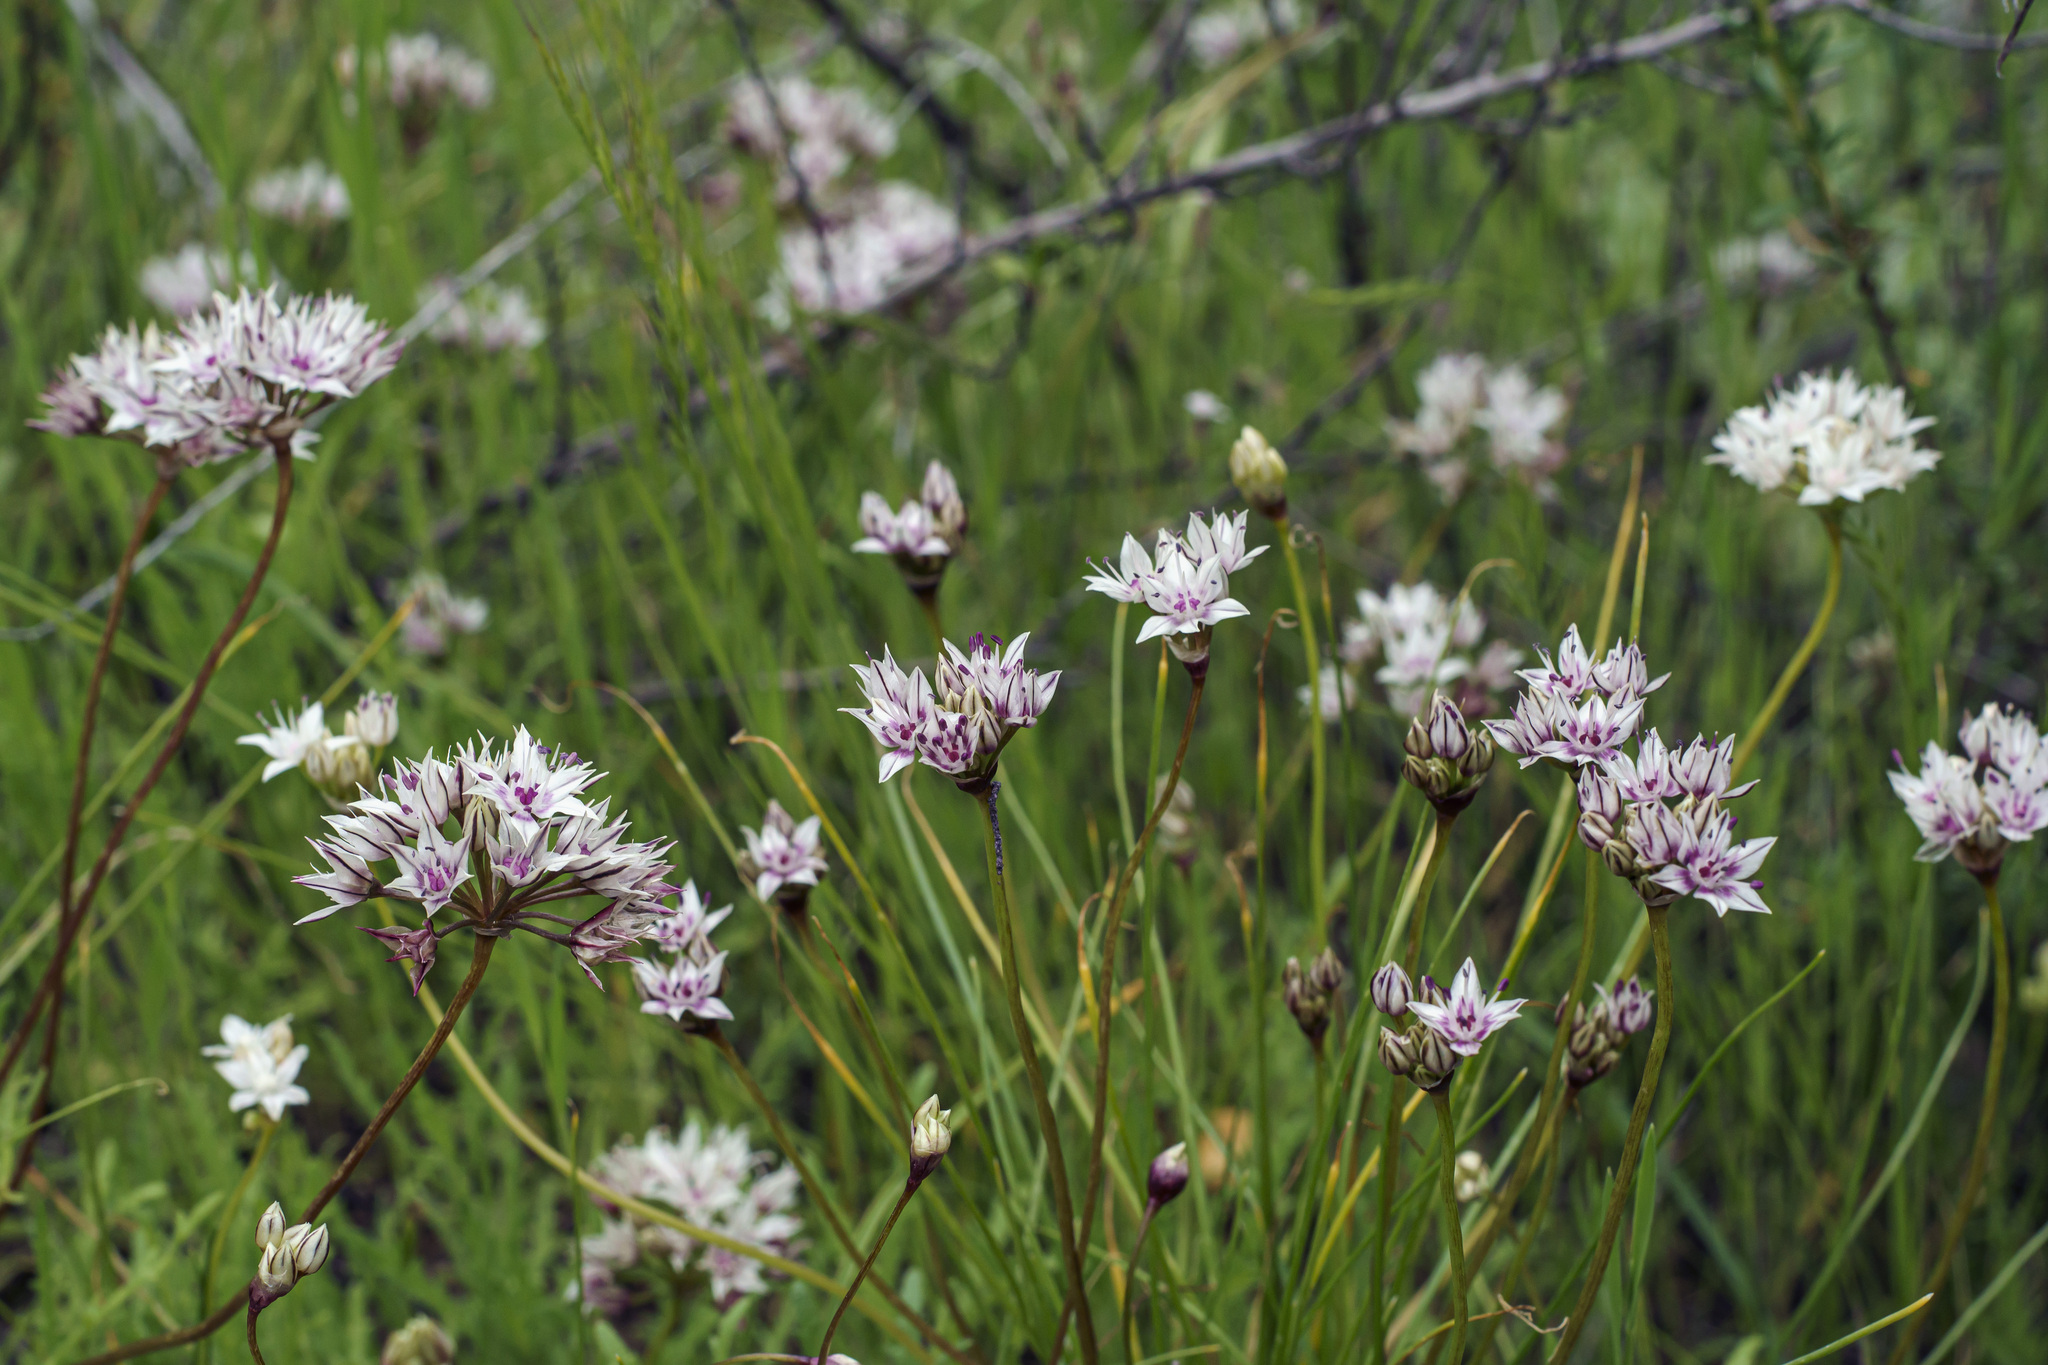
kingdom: Plantae
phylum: Tracheophyta
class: Liliopsida
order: Asparagales
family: Amaryllidaceae
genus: Allium
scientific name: Allium haematochiton
